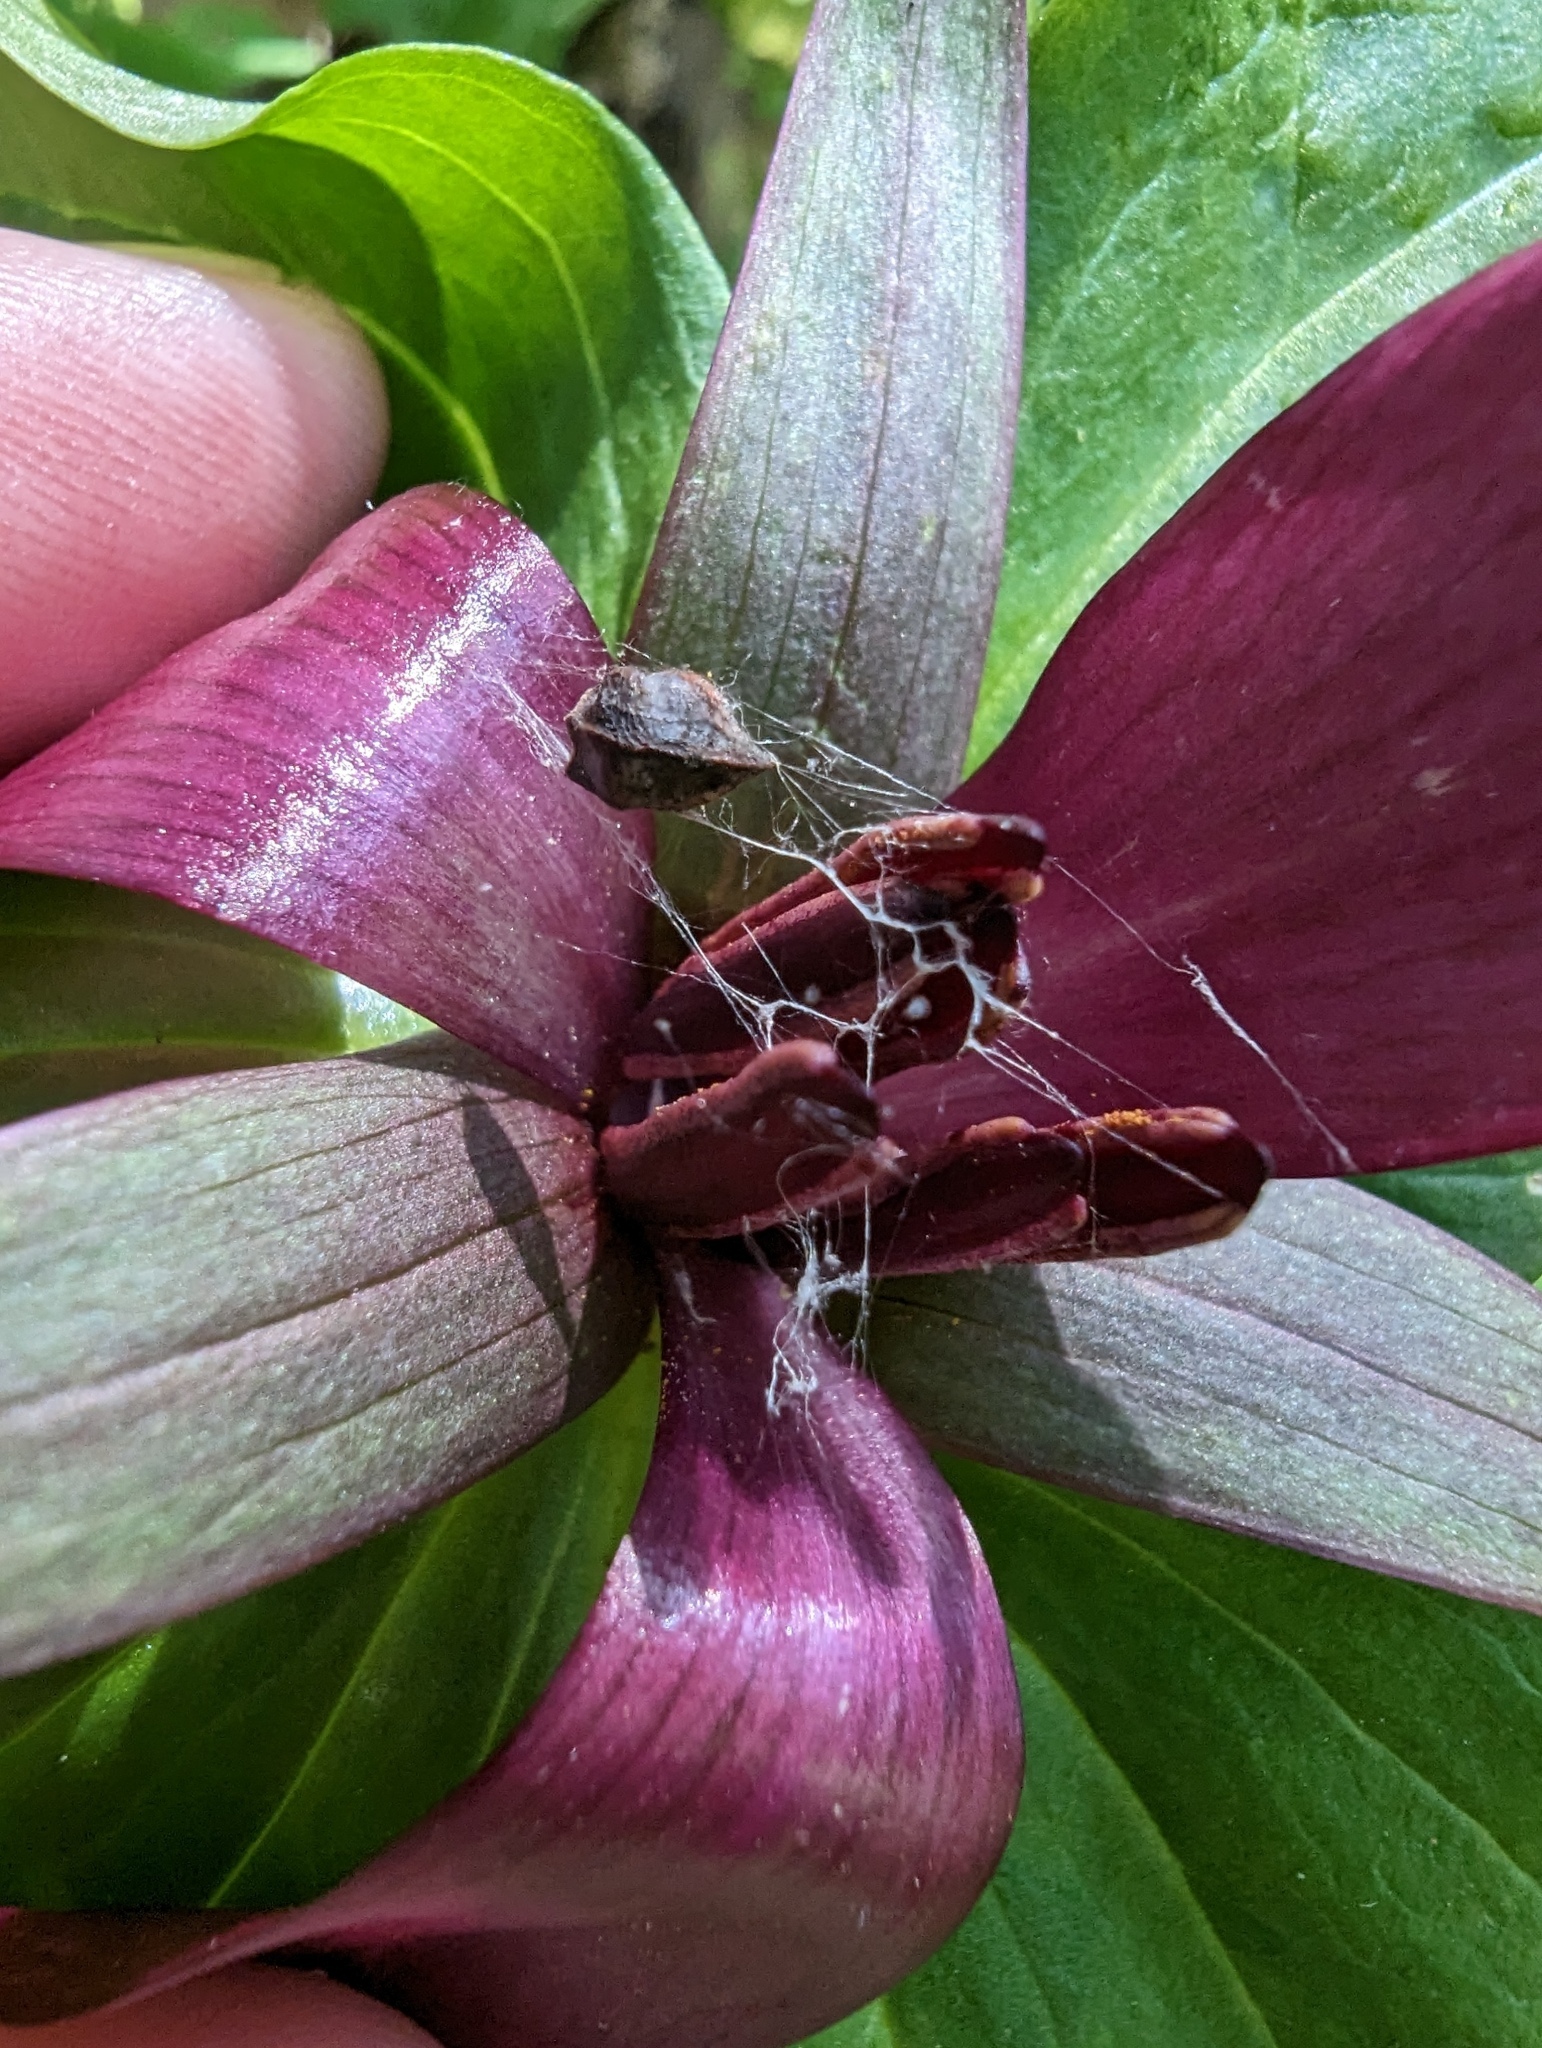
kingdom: Plantae
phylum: Tracheophyta
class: Liliopsida
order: Liliales
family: Melanthiaceae
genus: Trillium
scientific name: Trillium chloropetalum
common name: Giant trillium
